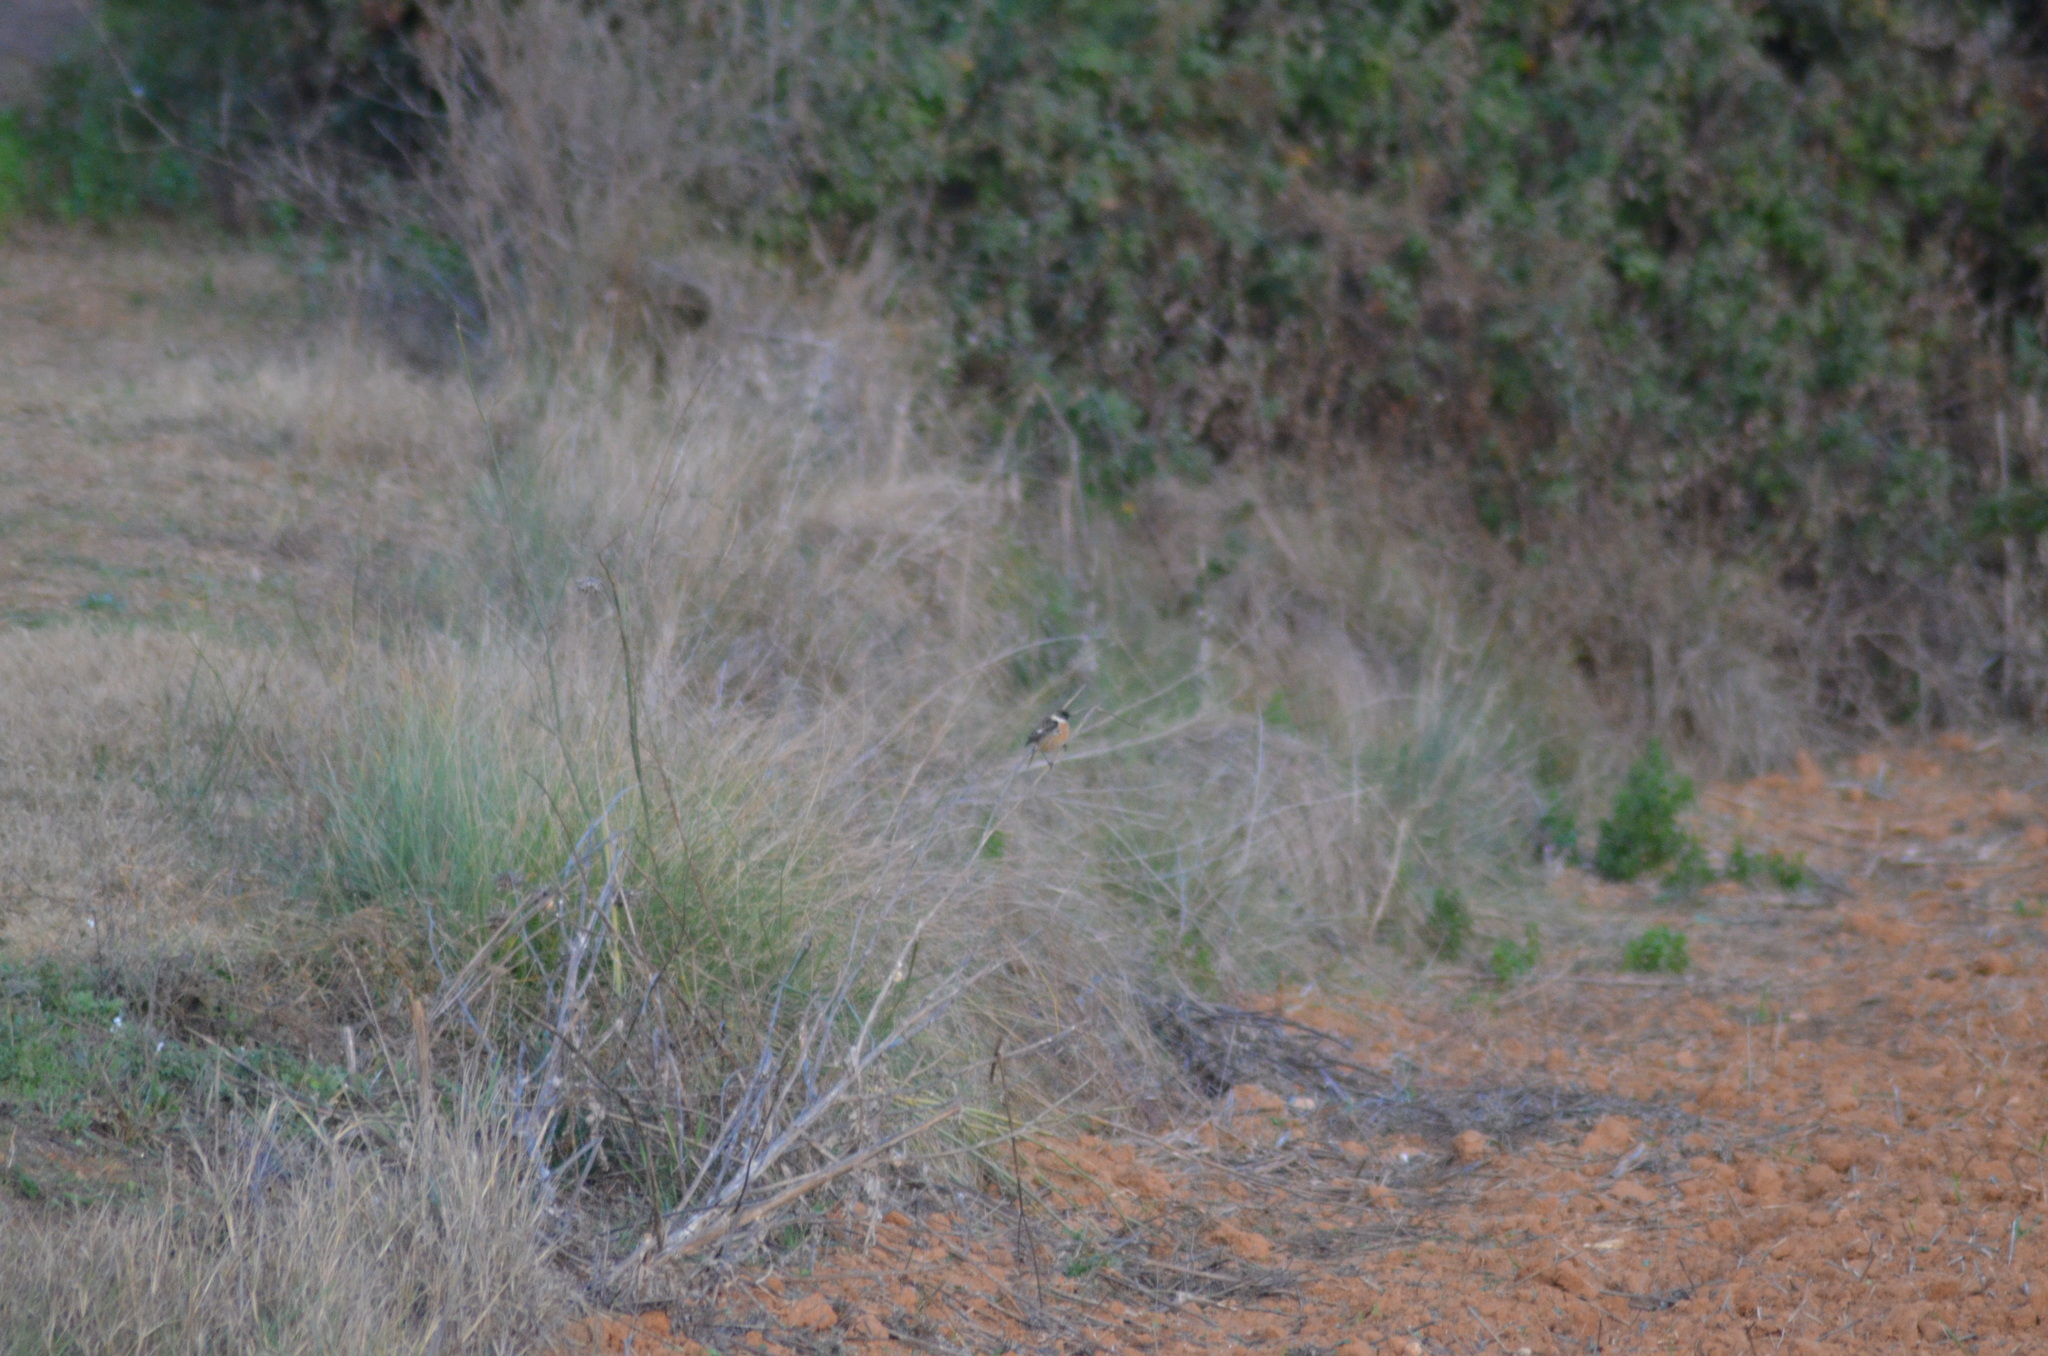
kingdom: Animalia
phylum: Chordata
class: Aves
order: Passeriformes
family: Muscicapidae
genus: Saxicola
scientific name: Saxicola rubicola
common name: European stonechat
